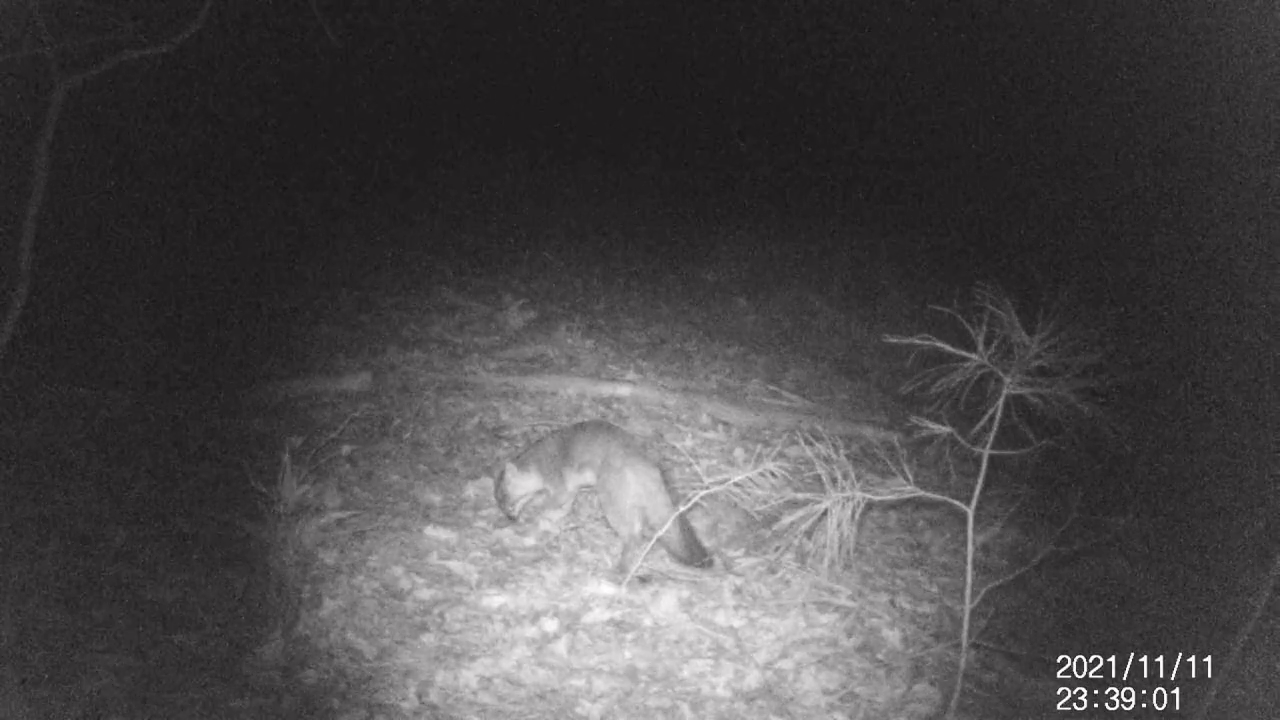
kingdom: Animalia
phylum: Chordata
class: Mammalia
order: Carnivora
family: Canidae
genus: Urocyon
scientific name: Urocyon cinereoargenteus
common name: Gray fox
